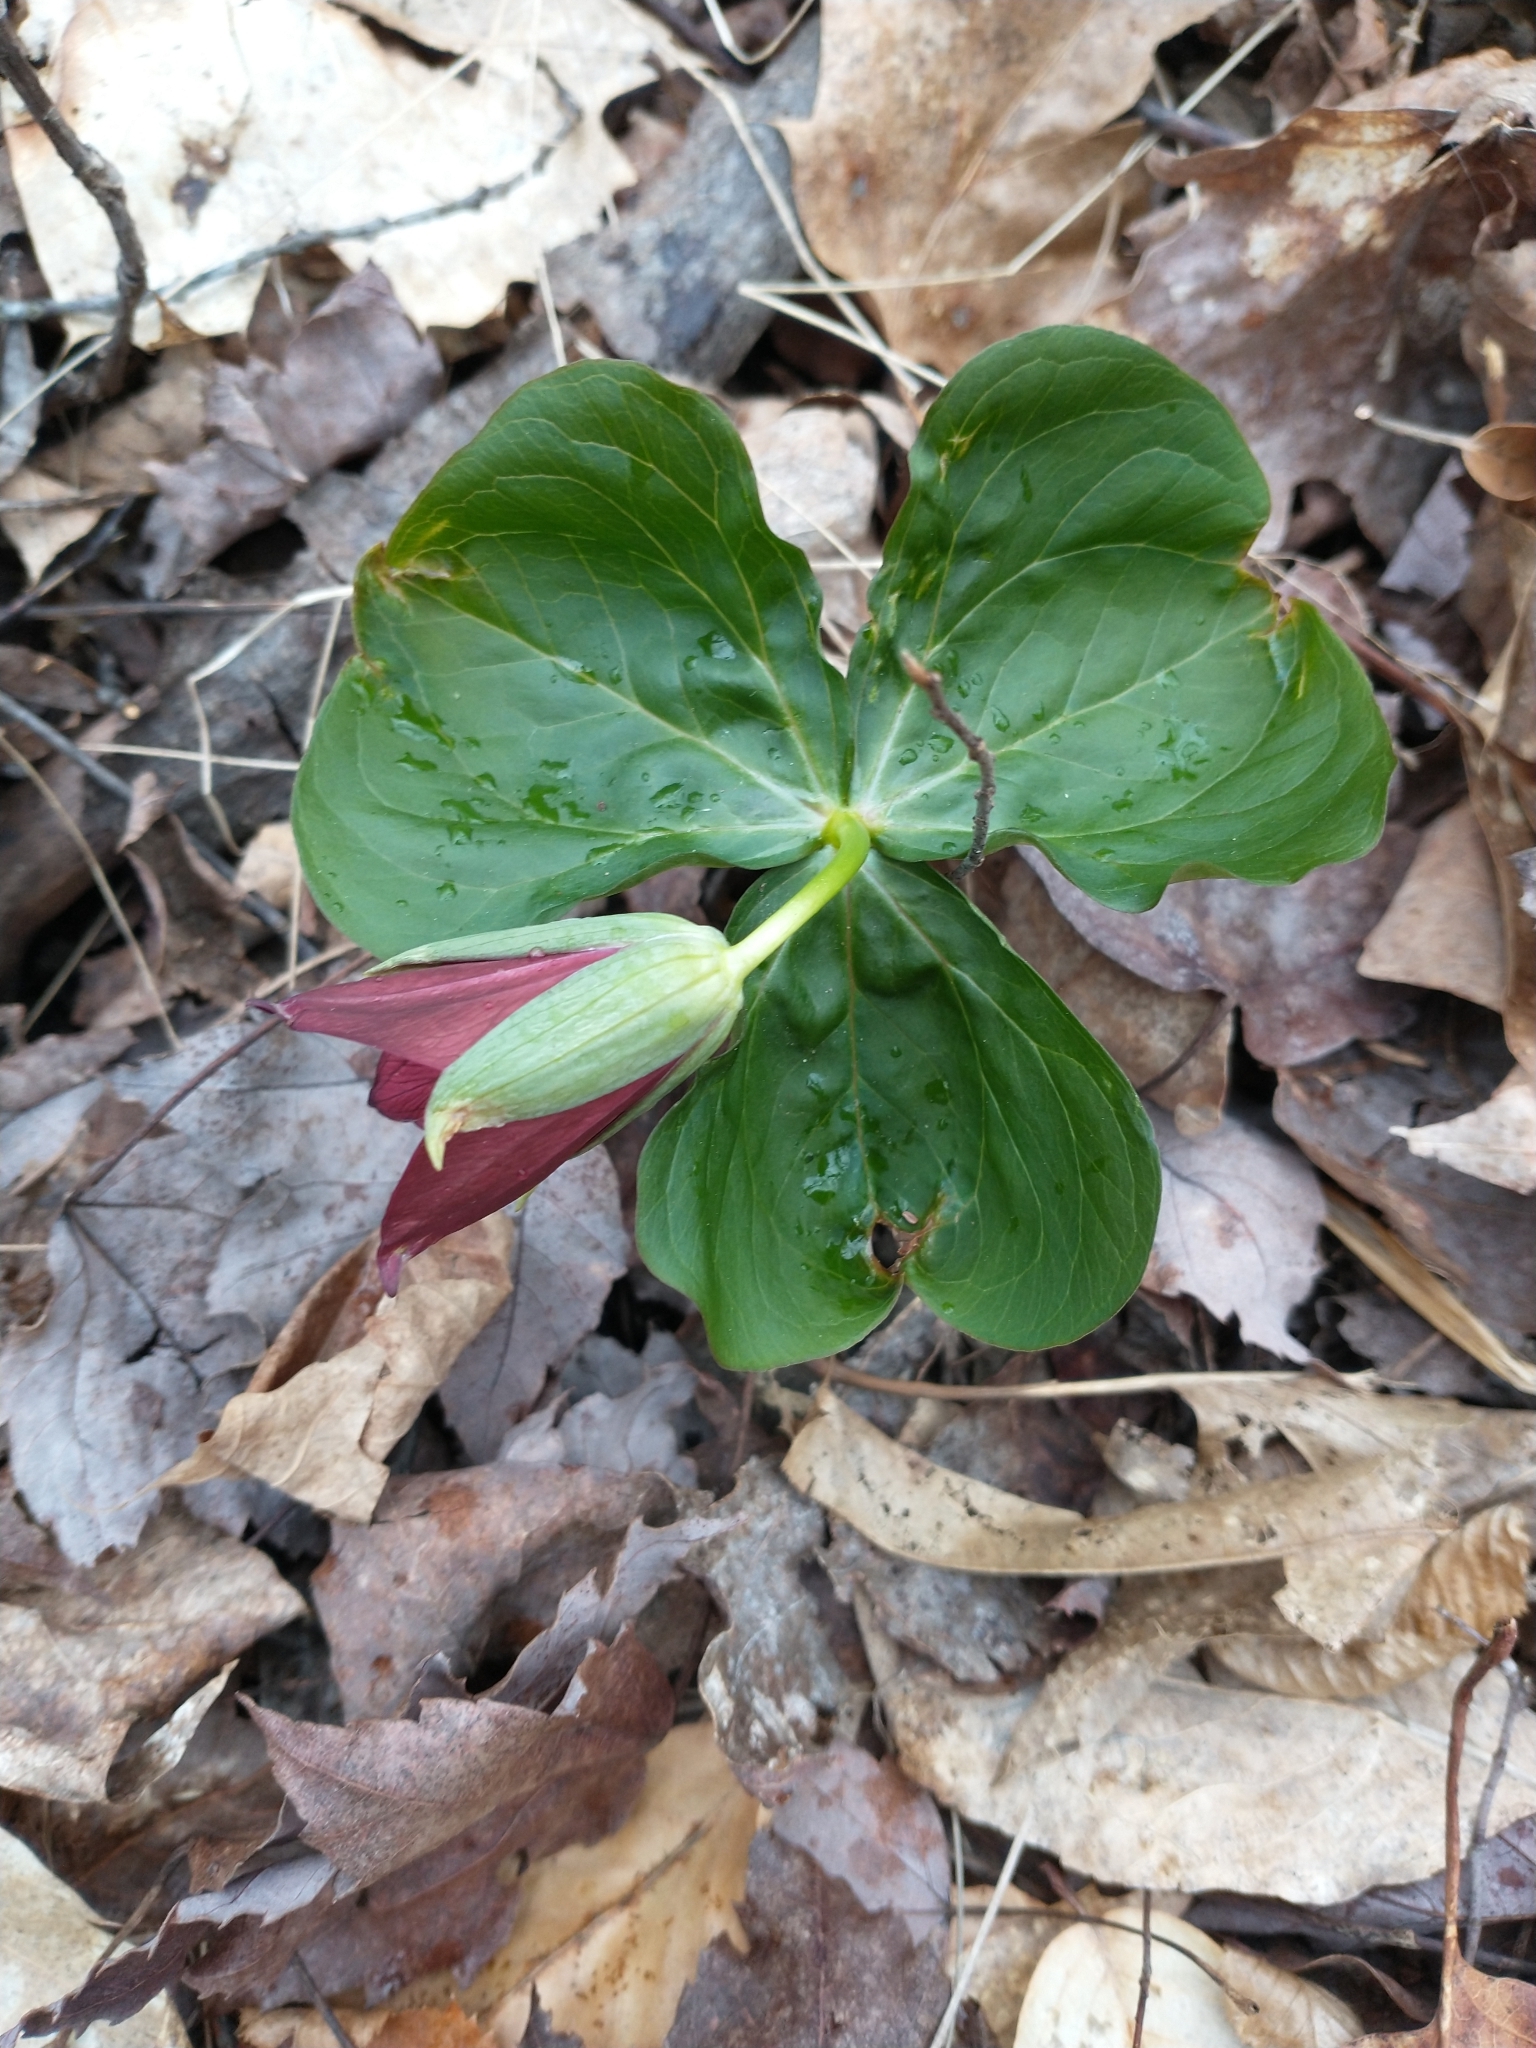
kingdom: Plantae
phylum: Tracheophyta
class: Liliopsida
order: Liliales
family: Melanthiaceae
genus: Trillium
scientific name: Trillium erectum
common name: Purple trillium
